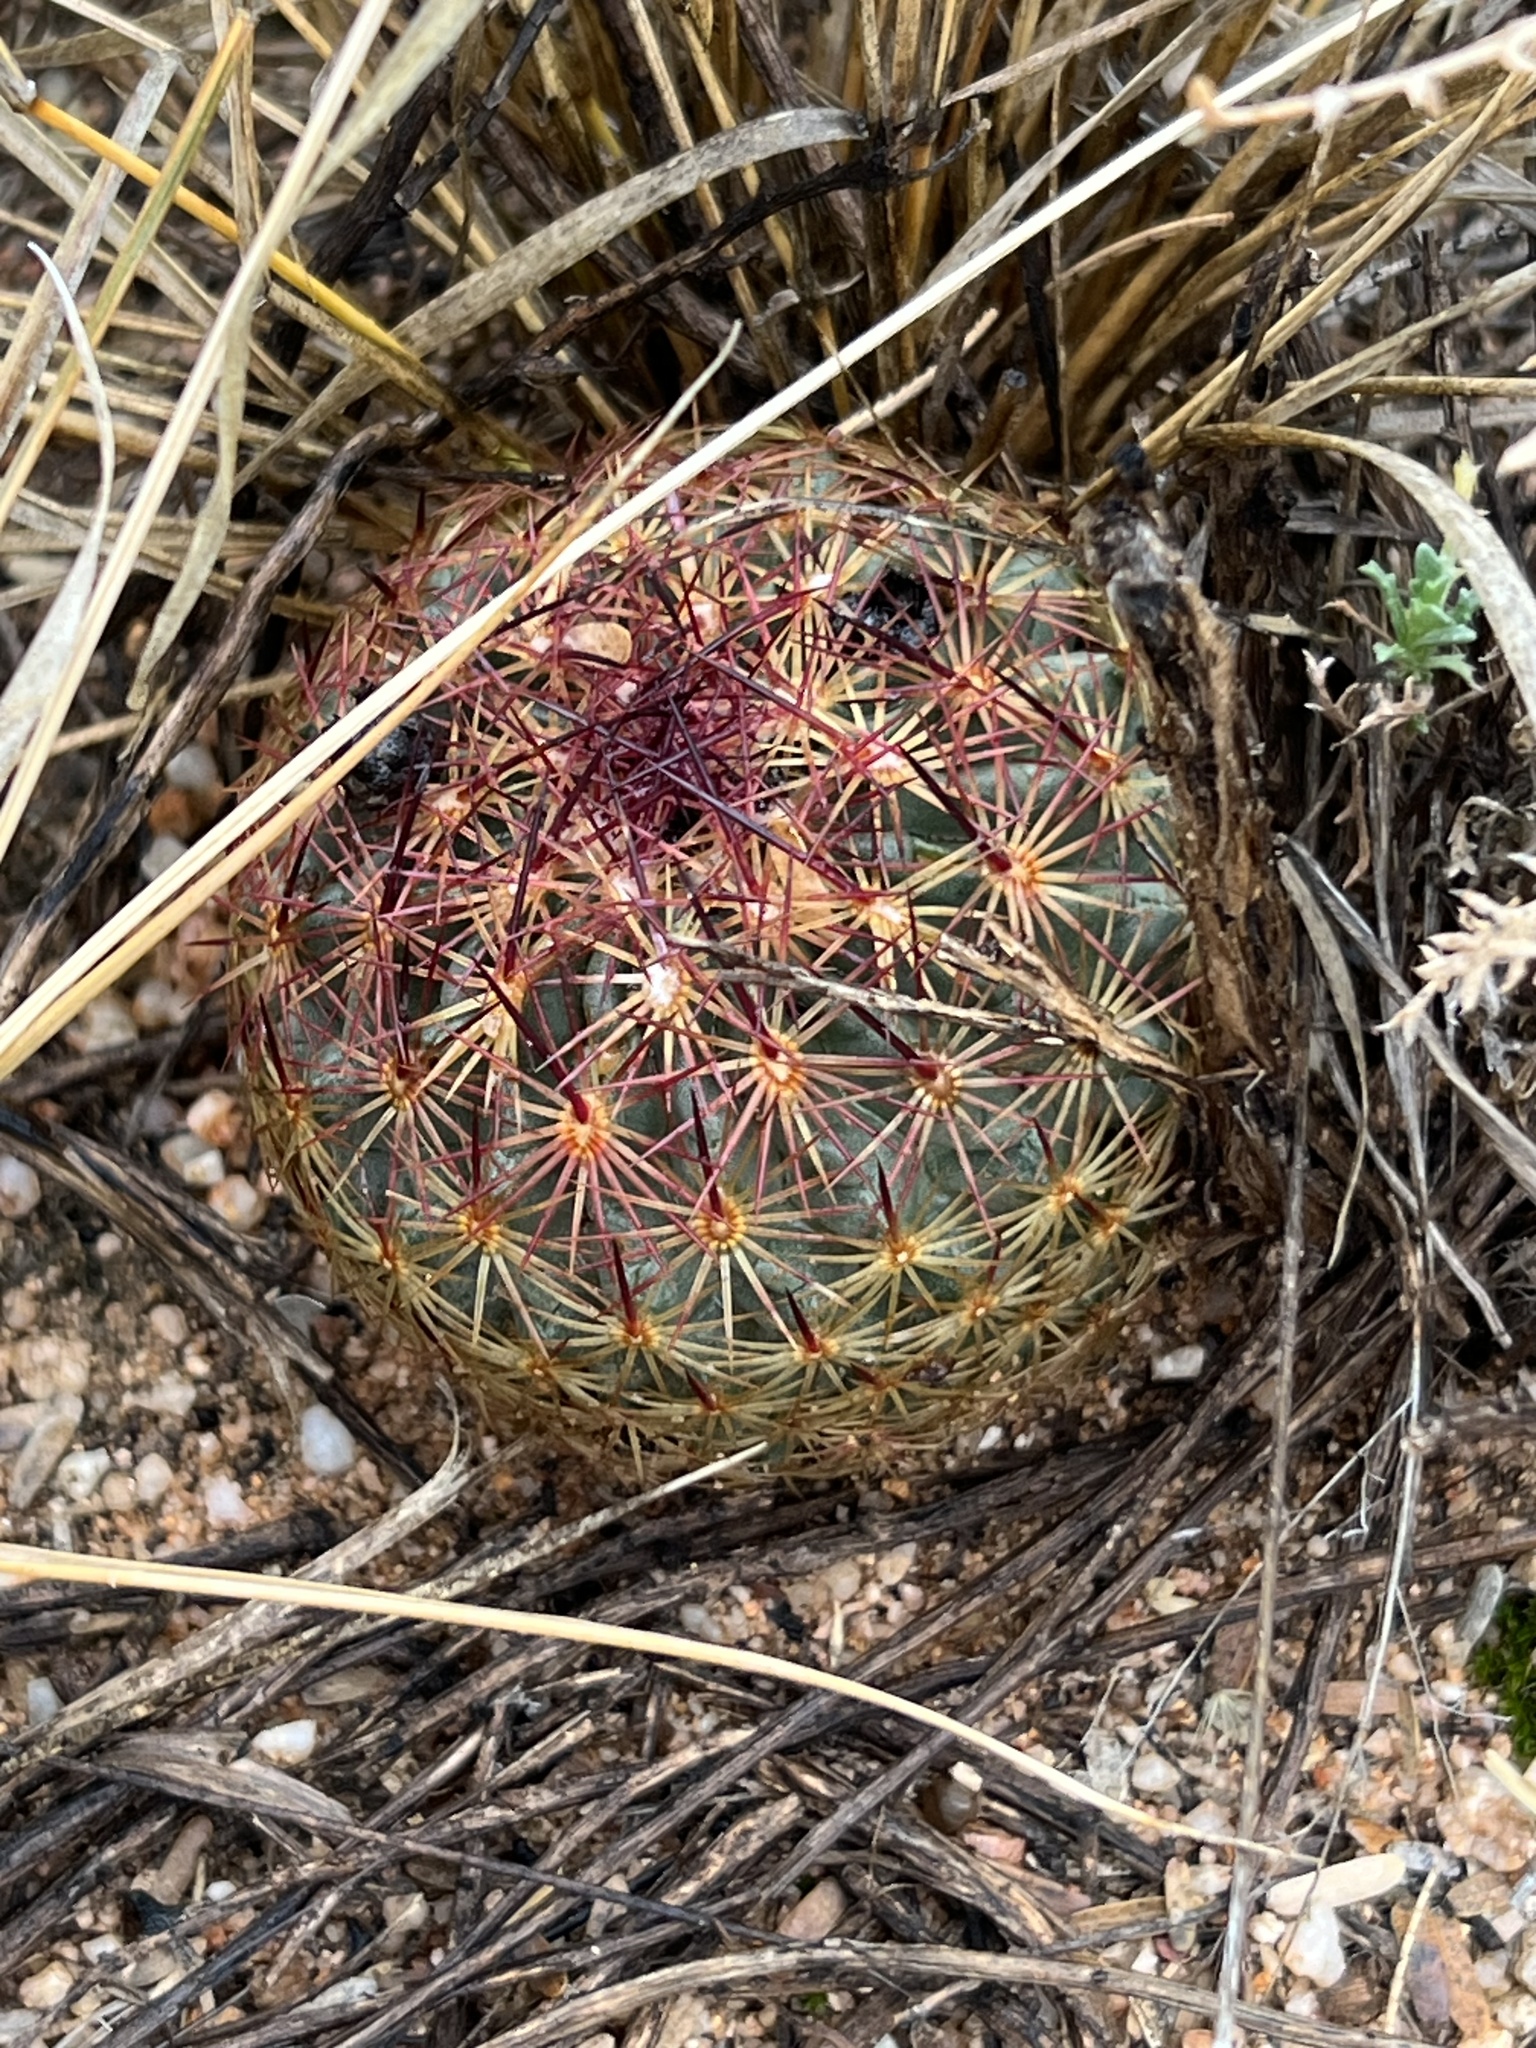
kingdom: Plantae
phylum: Tracheophyta
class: Magnoliopsida
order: Caryophyllales
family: Cactaceae
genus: Sclerocactus
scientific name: Sclerocactus johnsonii
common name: Eight-spine fishhook cactus
